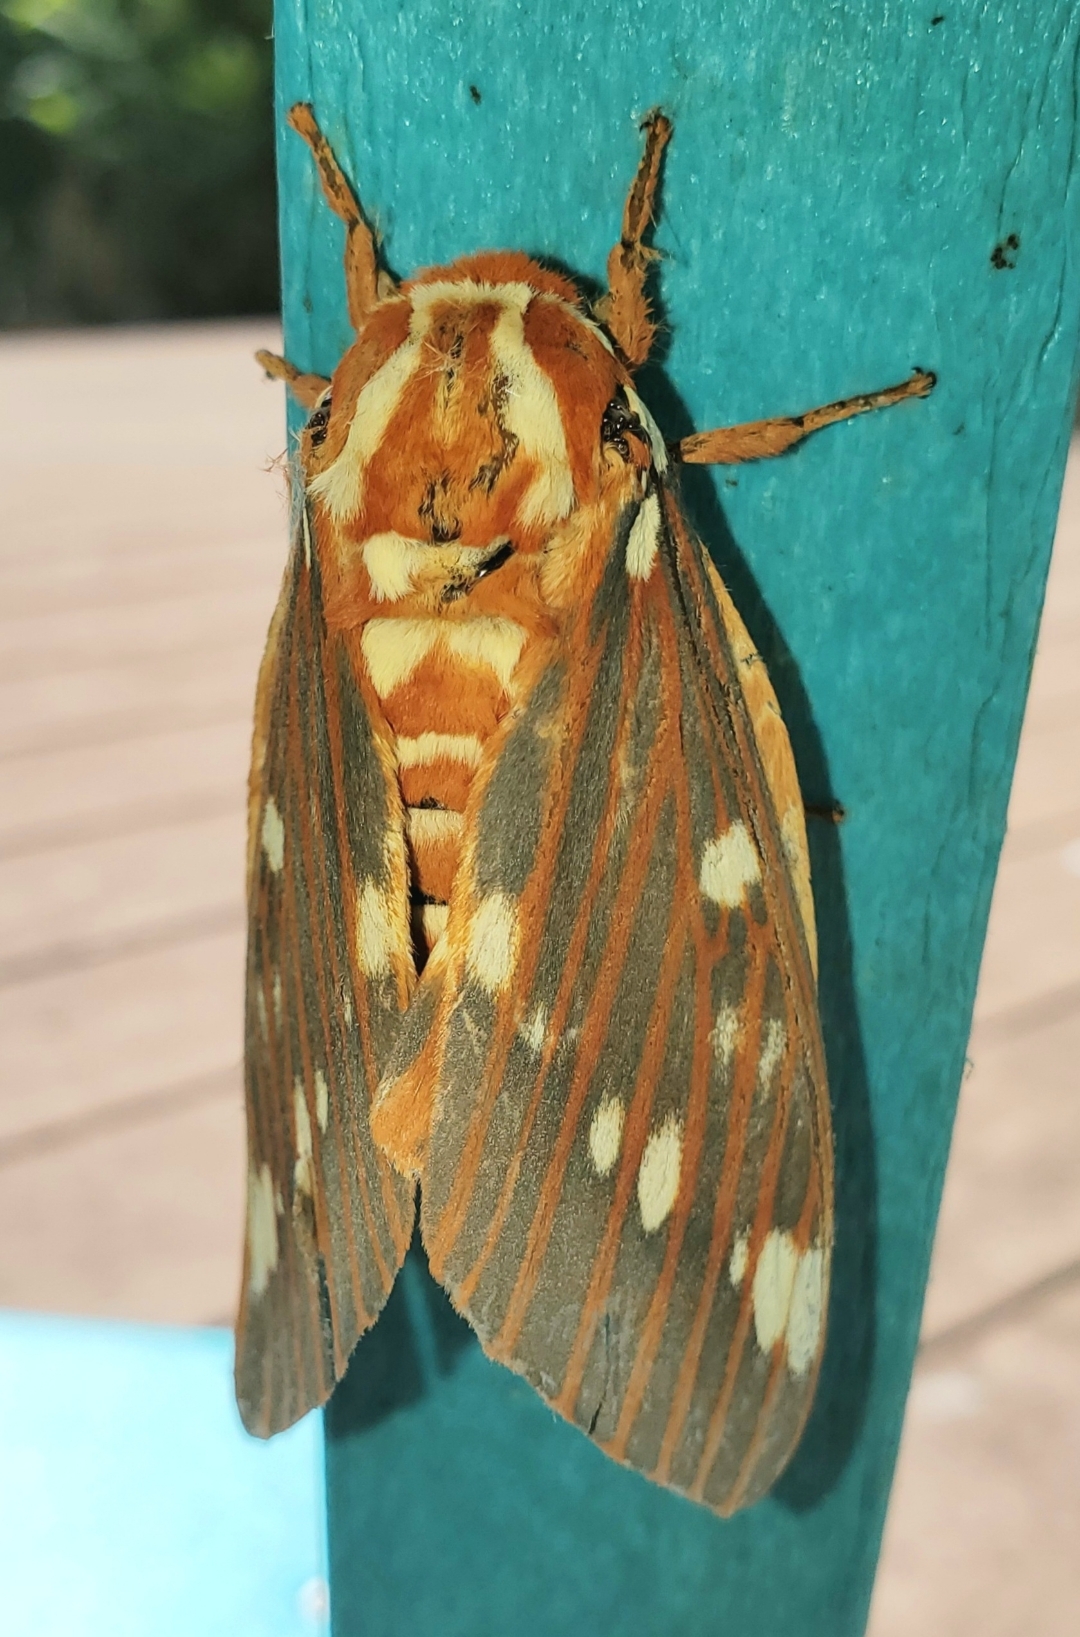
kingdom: Animalia
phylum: Arthropoda
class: Insecta
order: Lepidoptera
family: Saturniidae
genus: Citheronia
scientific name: Citheronia regalis
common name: Hickory horned devil
